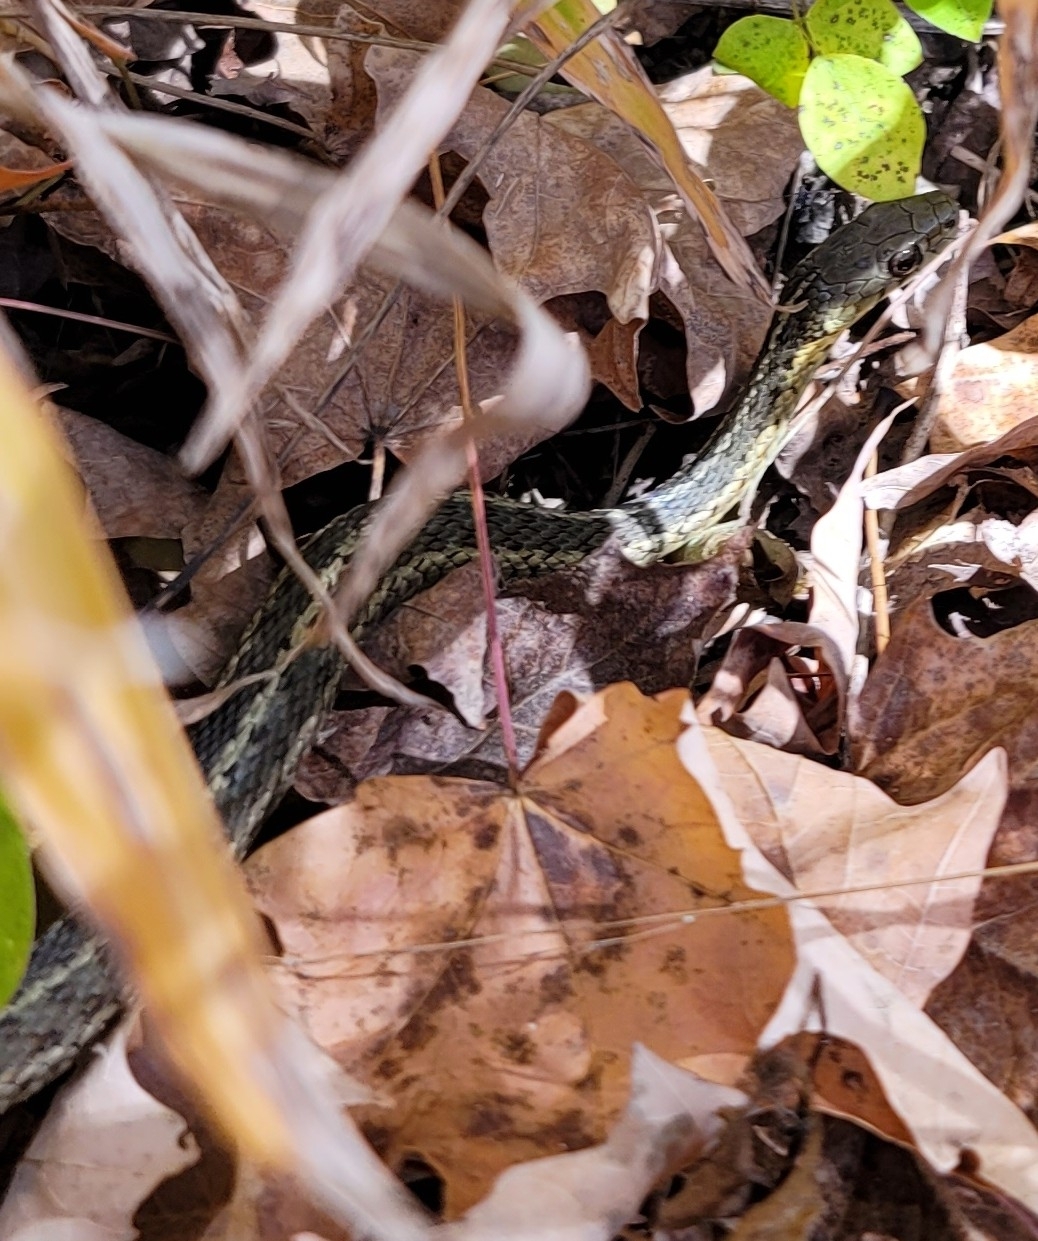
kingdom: Animalia
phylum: Chordata
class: Squamata
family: Colubridae
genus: Thamnophis
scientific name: Thamnophis sirtalis
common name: Common garter snake
